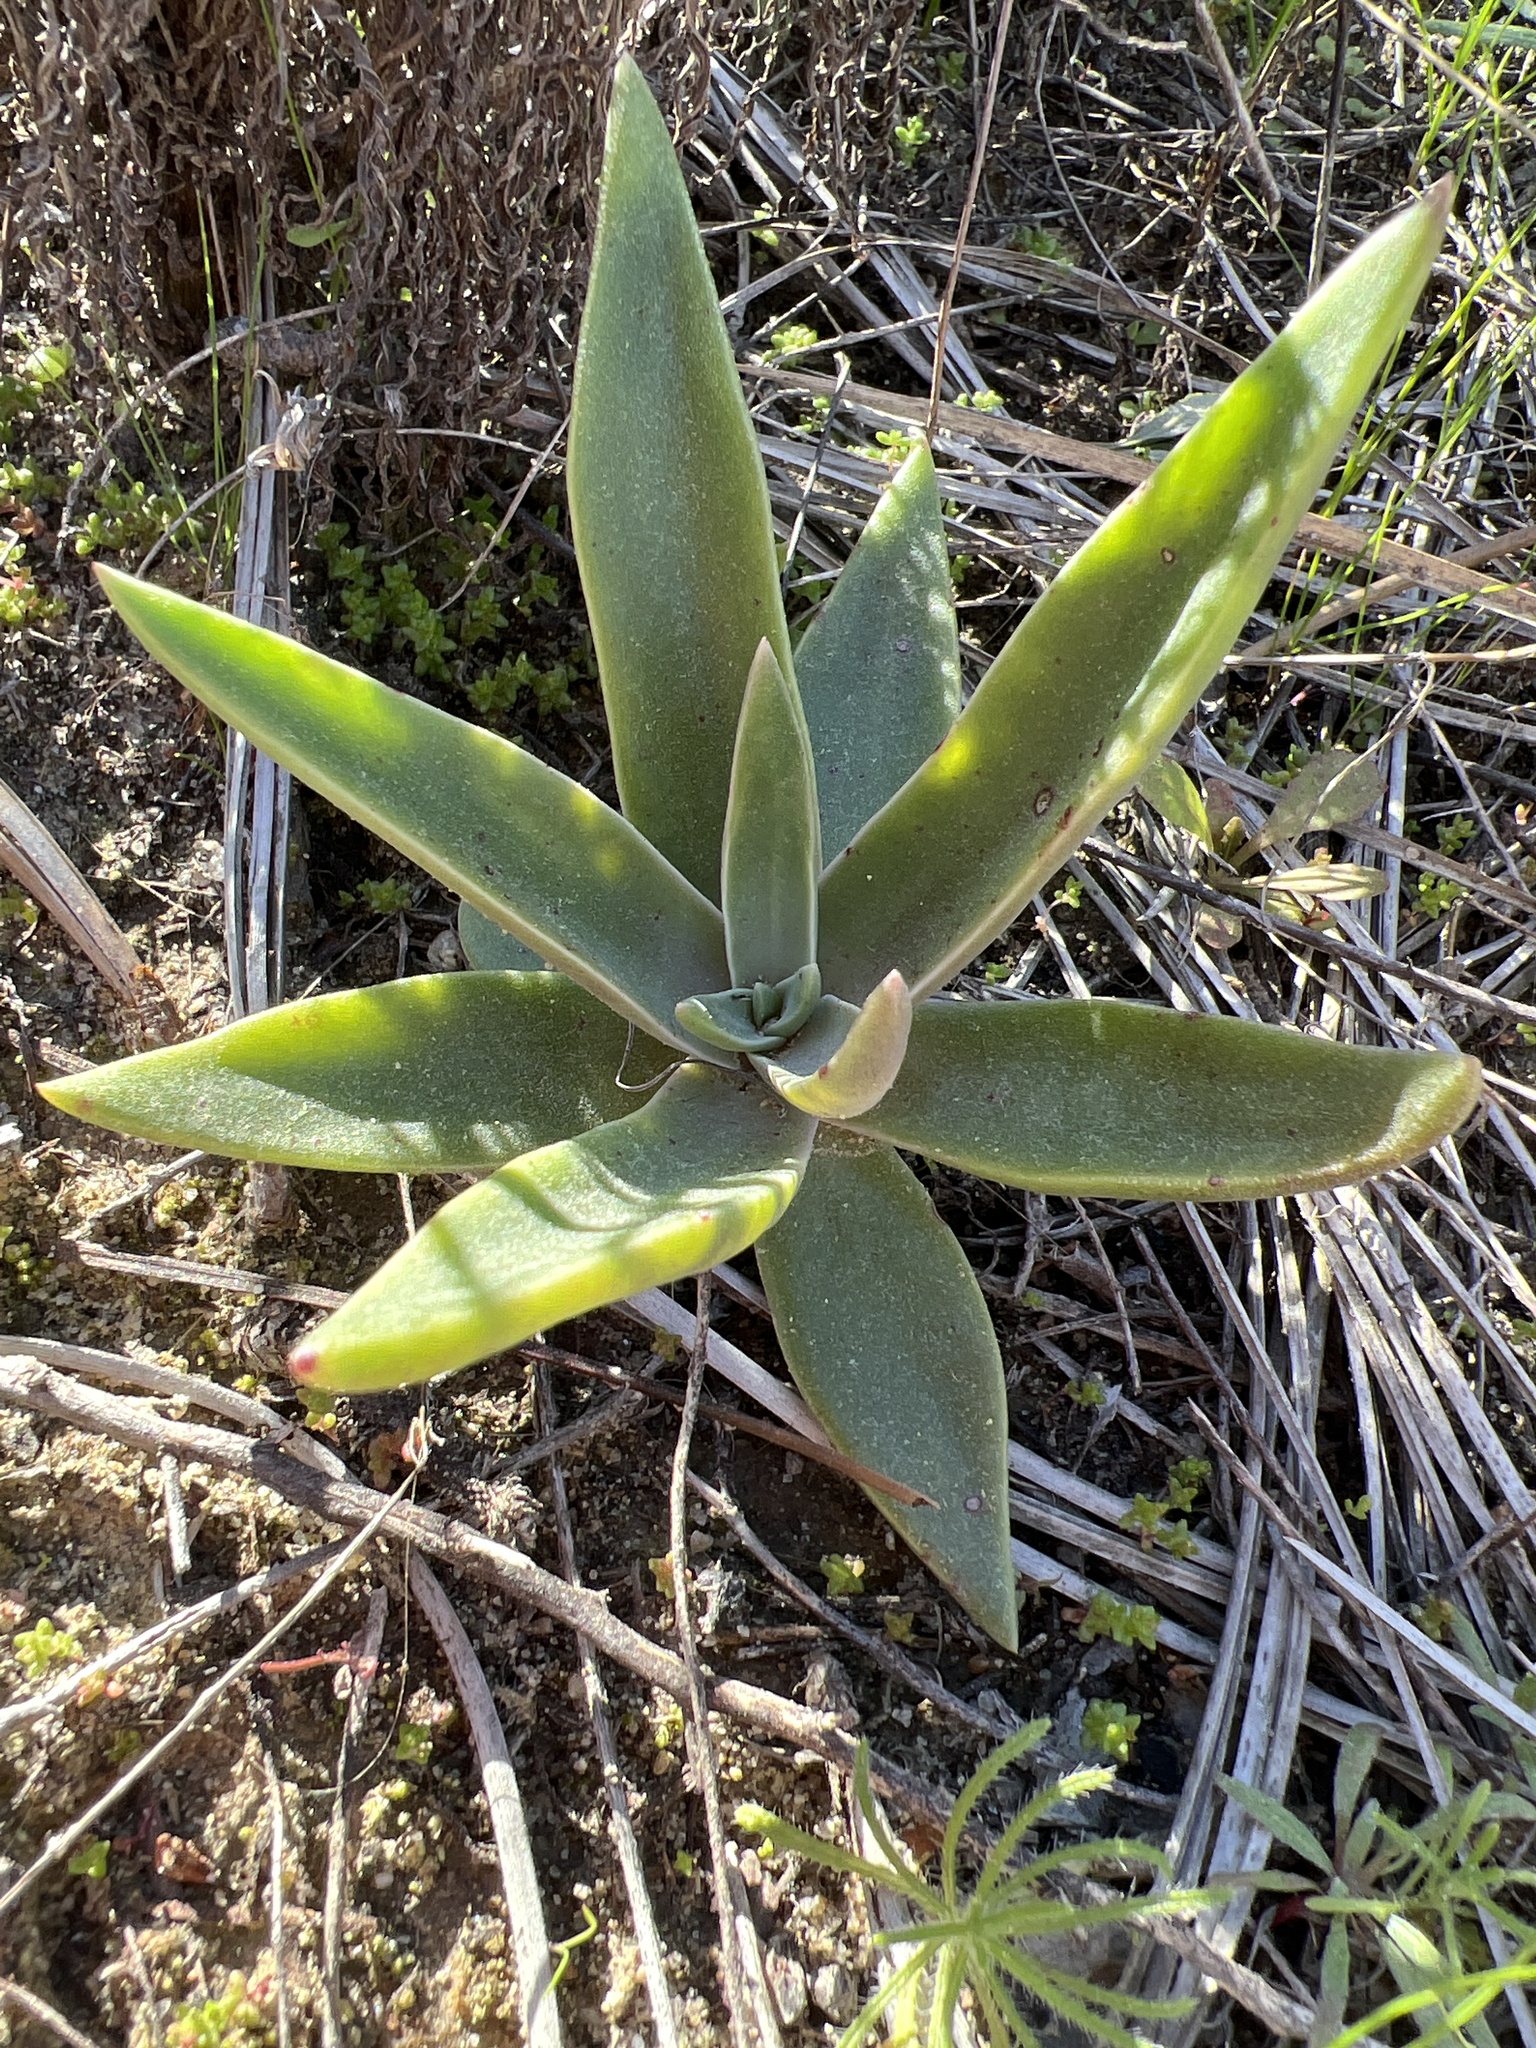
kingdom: Plantae
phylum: Tracheophyta
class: Magnoliopsida
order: Saxifragales
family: Crassulaceae
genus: Dudleya
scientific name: Dudleya lanceolata
